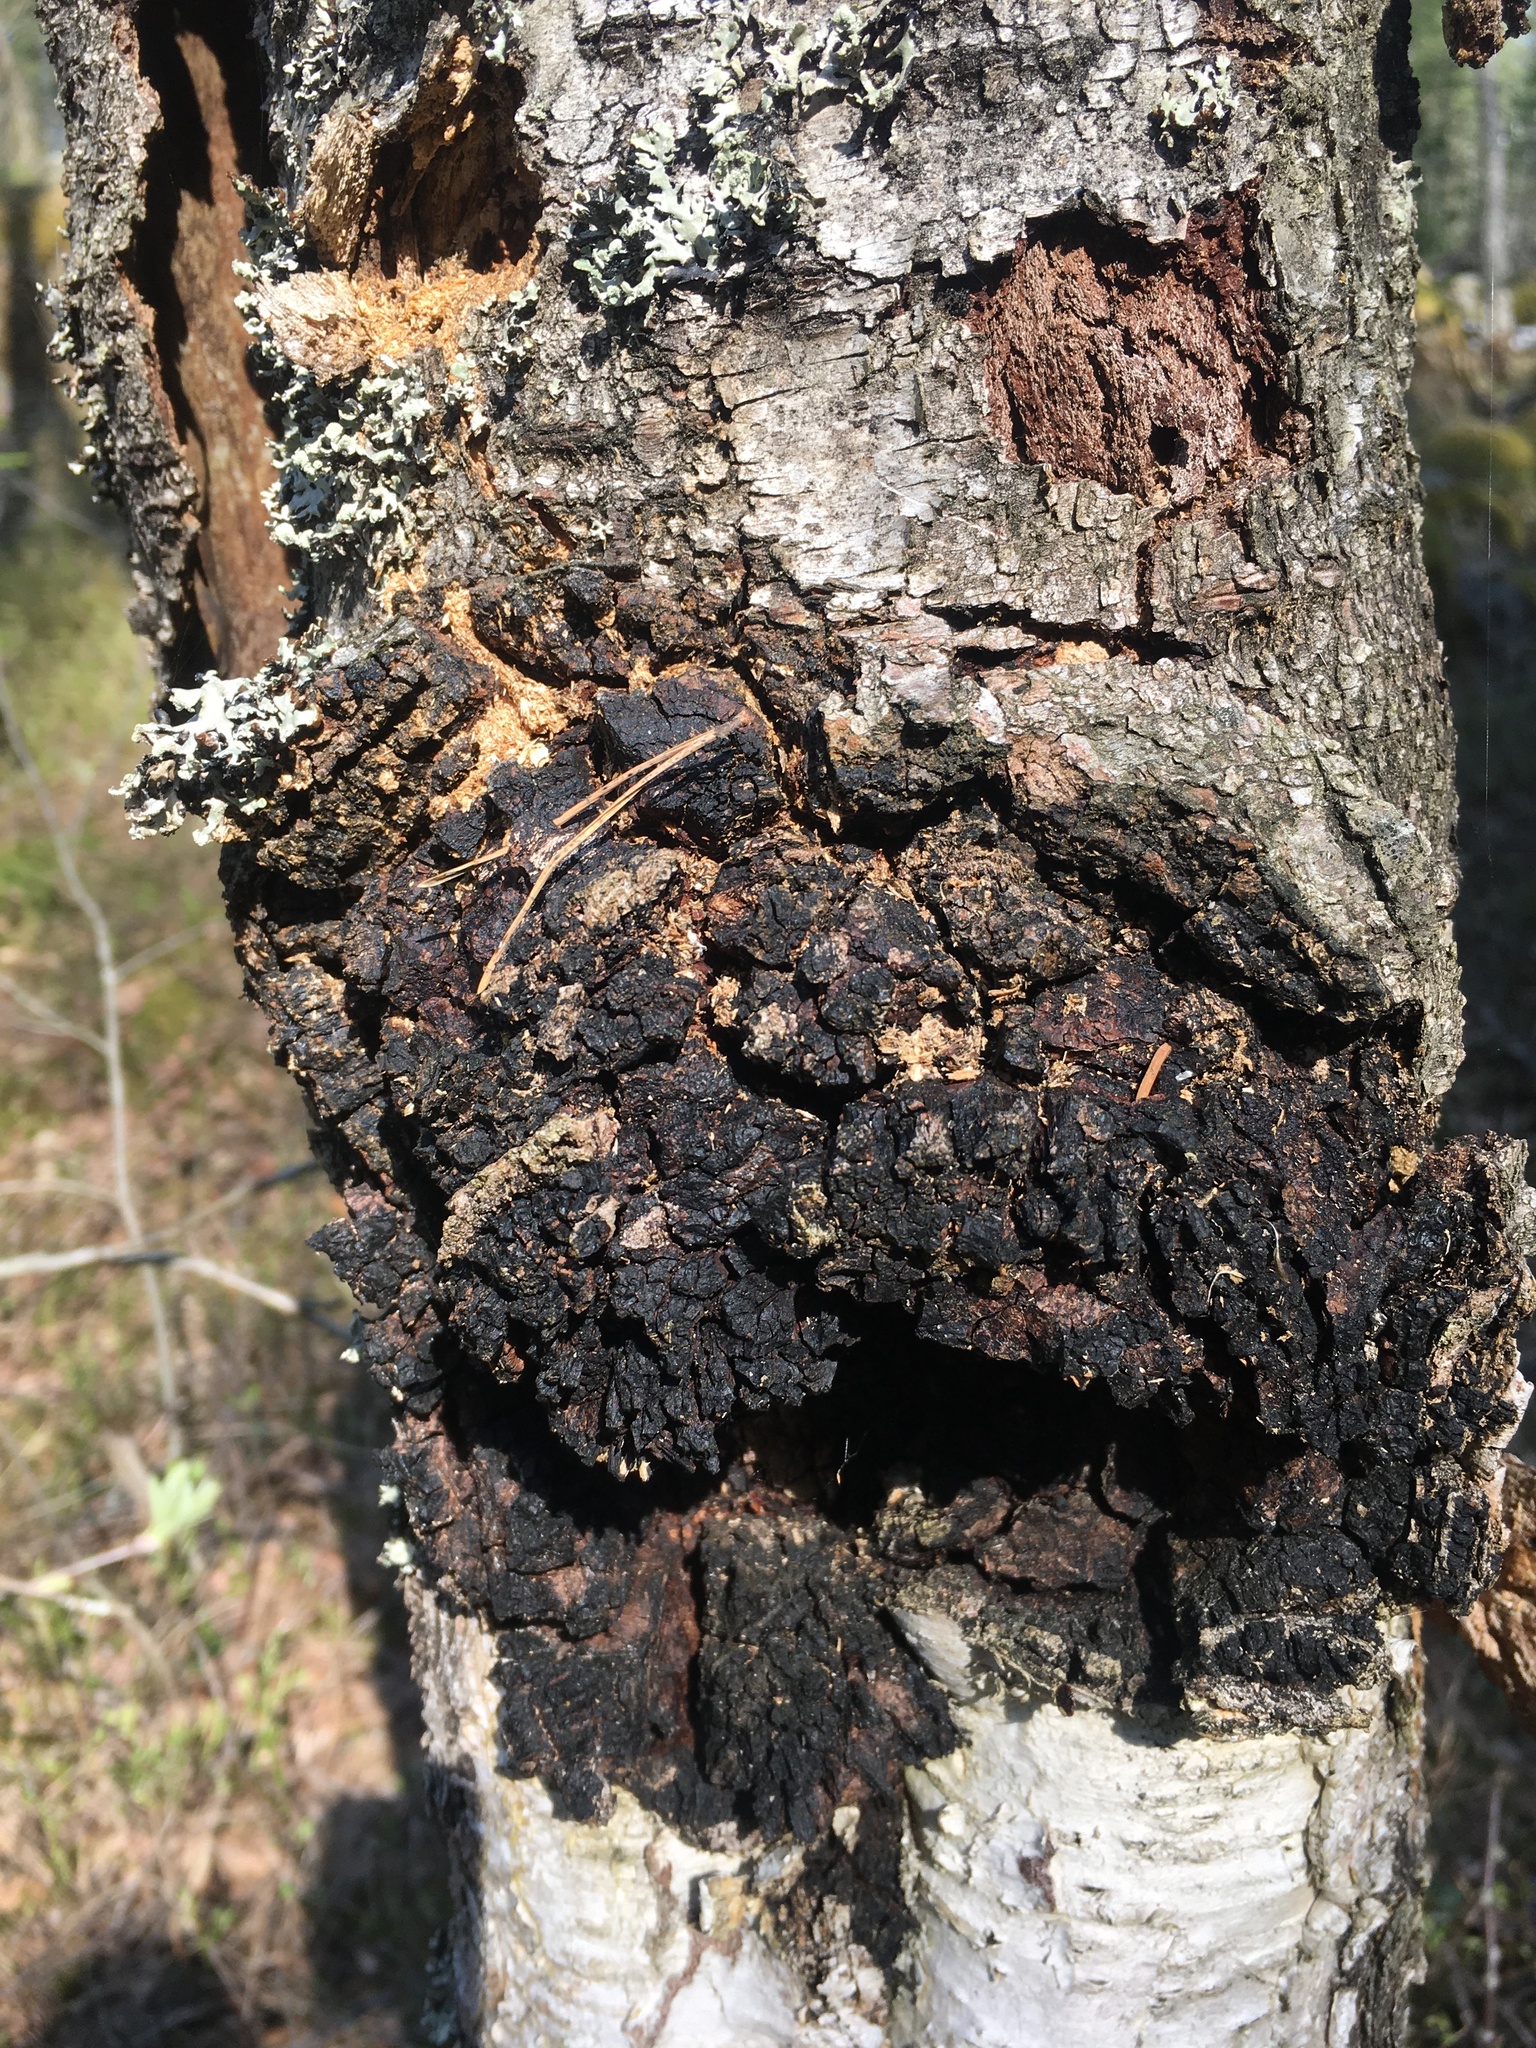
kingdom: Fungi
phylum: Basidiomycota
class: Agaricomycetes
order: Hymenochaetales
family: Hymenochaetaceae
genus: Inonotus
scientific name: Inonotus obliquus
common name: Chaga
